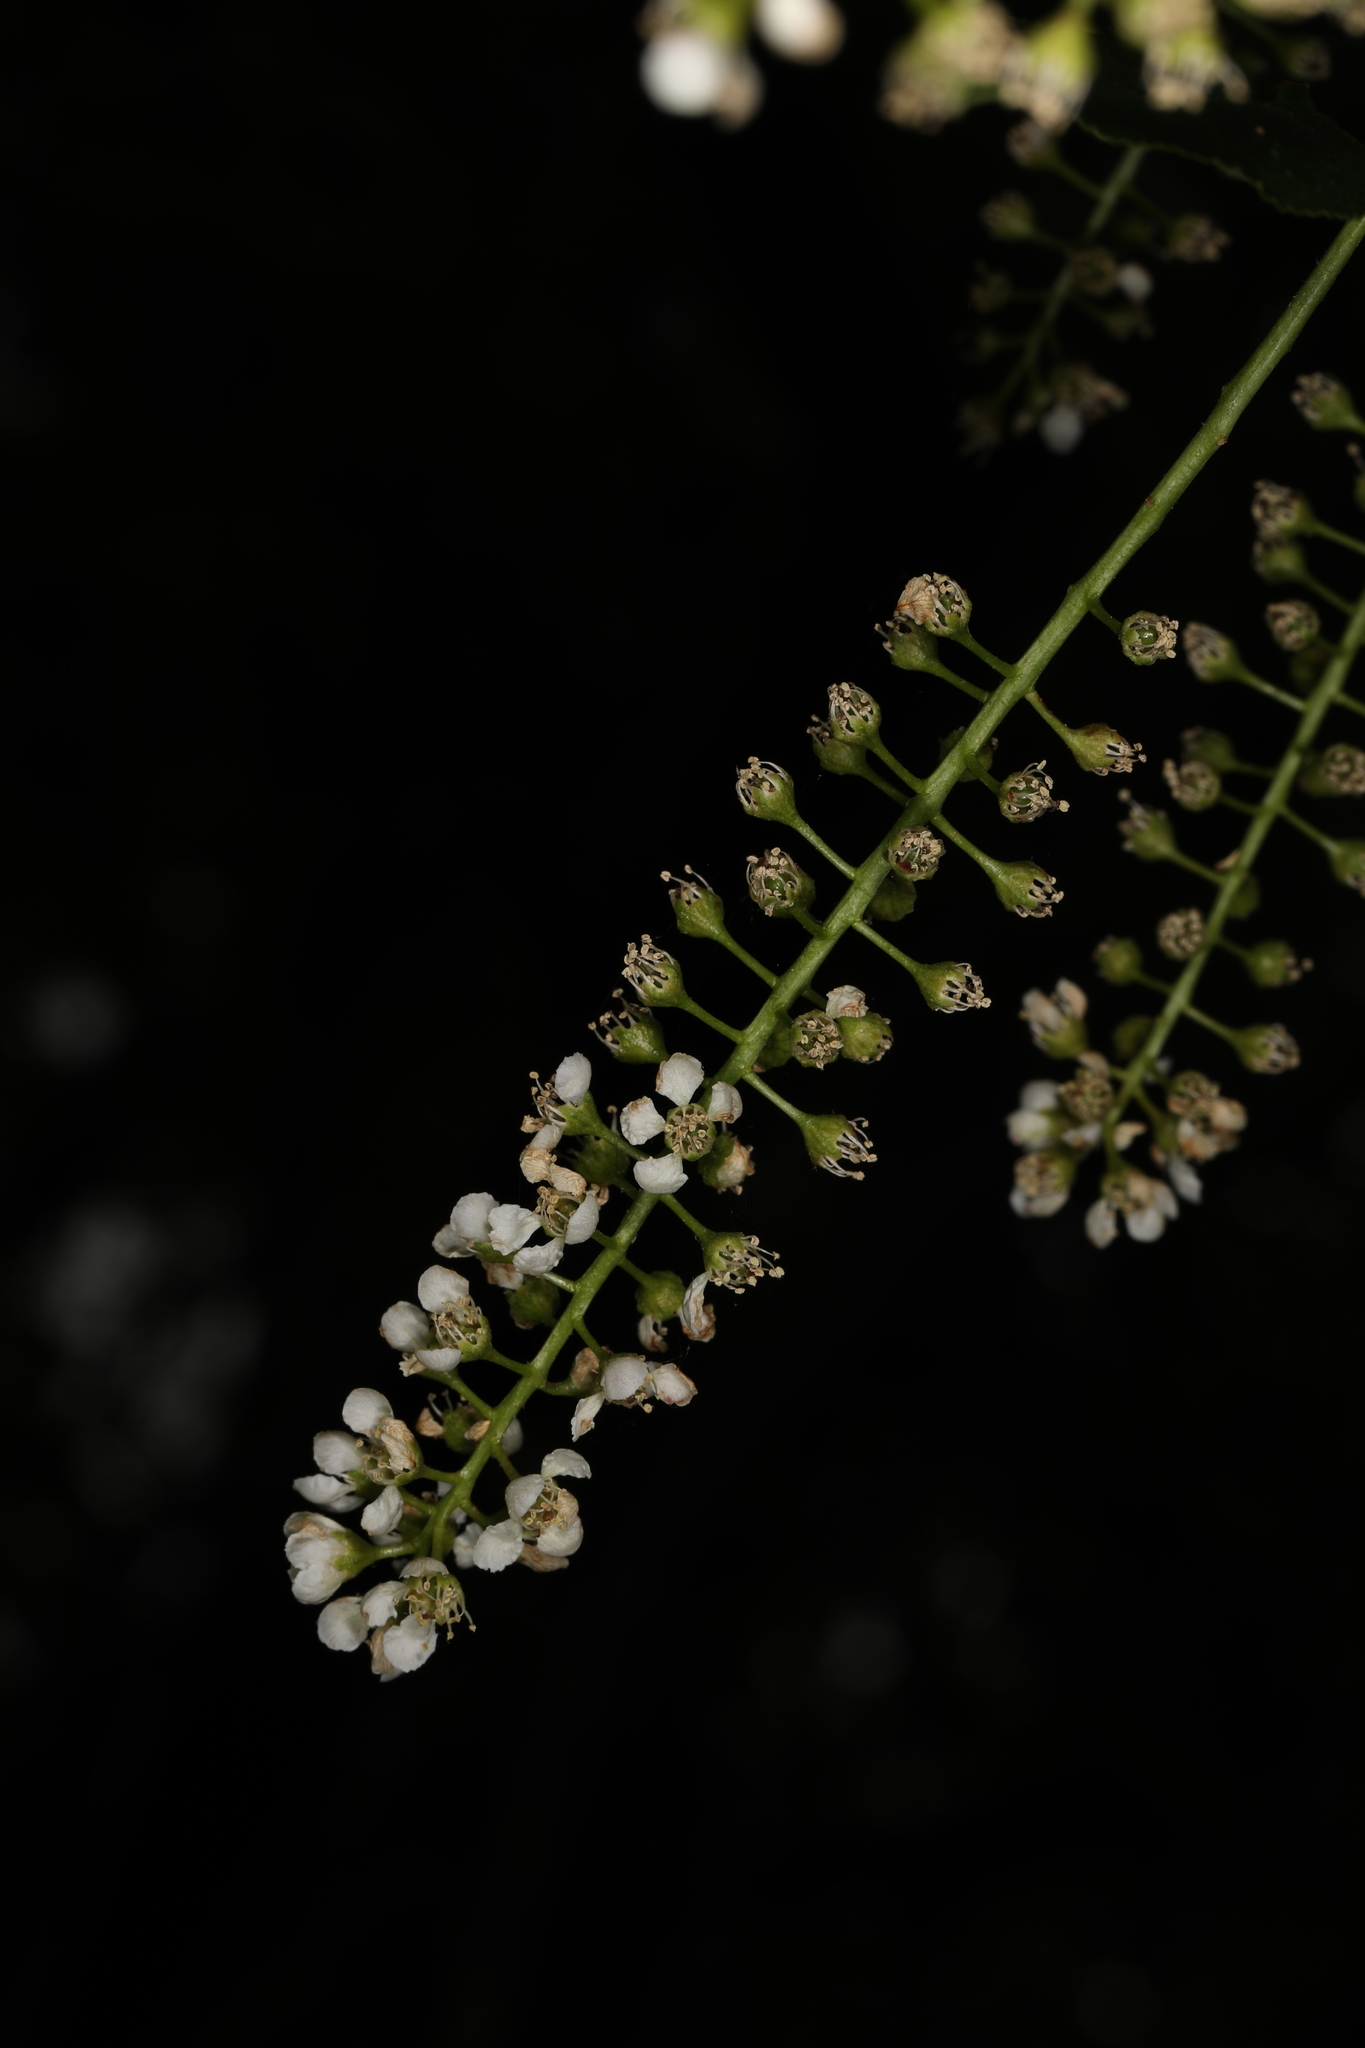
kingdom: Plantae
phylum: Tracheophyta
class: Magnoliopsida
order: Rosales
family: Rosaceae
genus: Prunus
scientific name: Prunus serotina
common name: Black cherry
